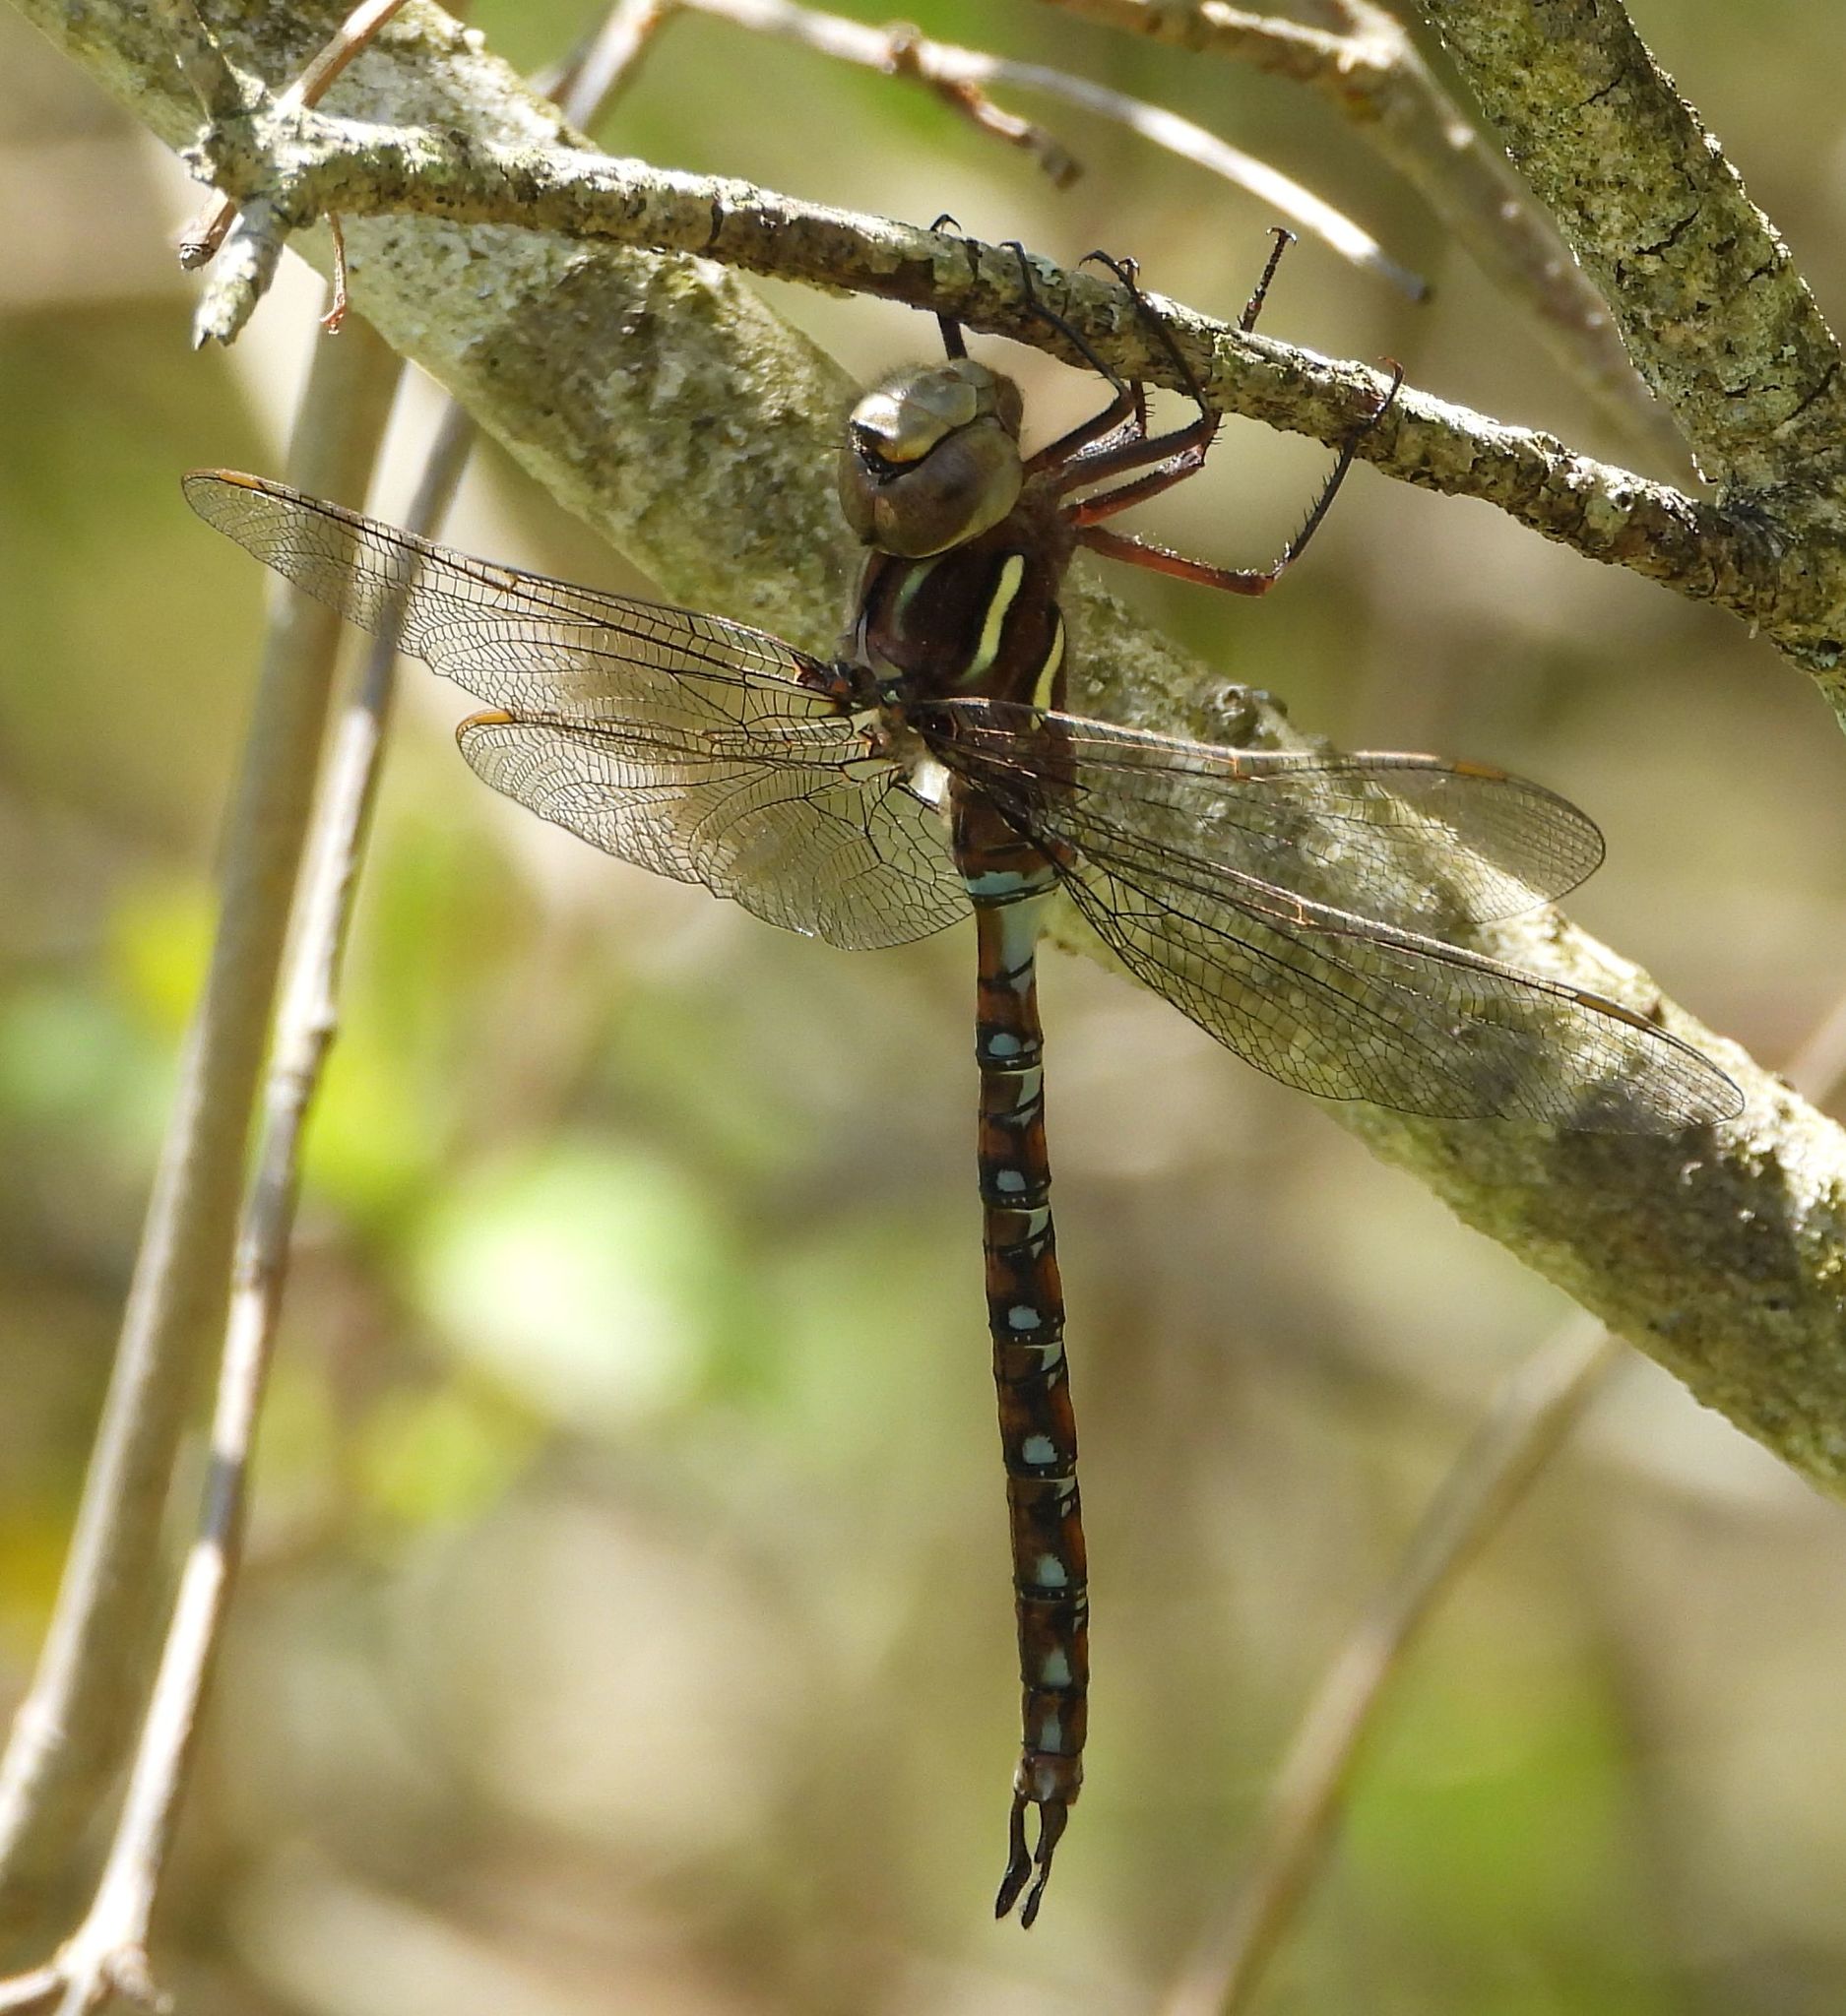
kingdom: Animalia
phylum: Arthropoda
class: Insecta
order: Odonata
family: Aeshnidae
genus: Basiaeschna
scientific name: Basiaeschna janata
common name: Springtime darner
